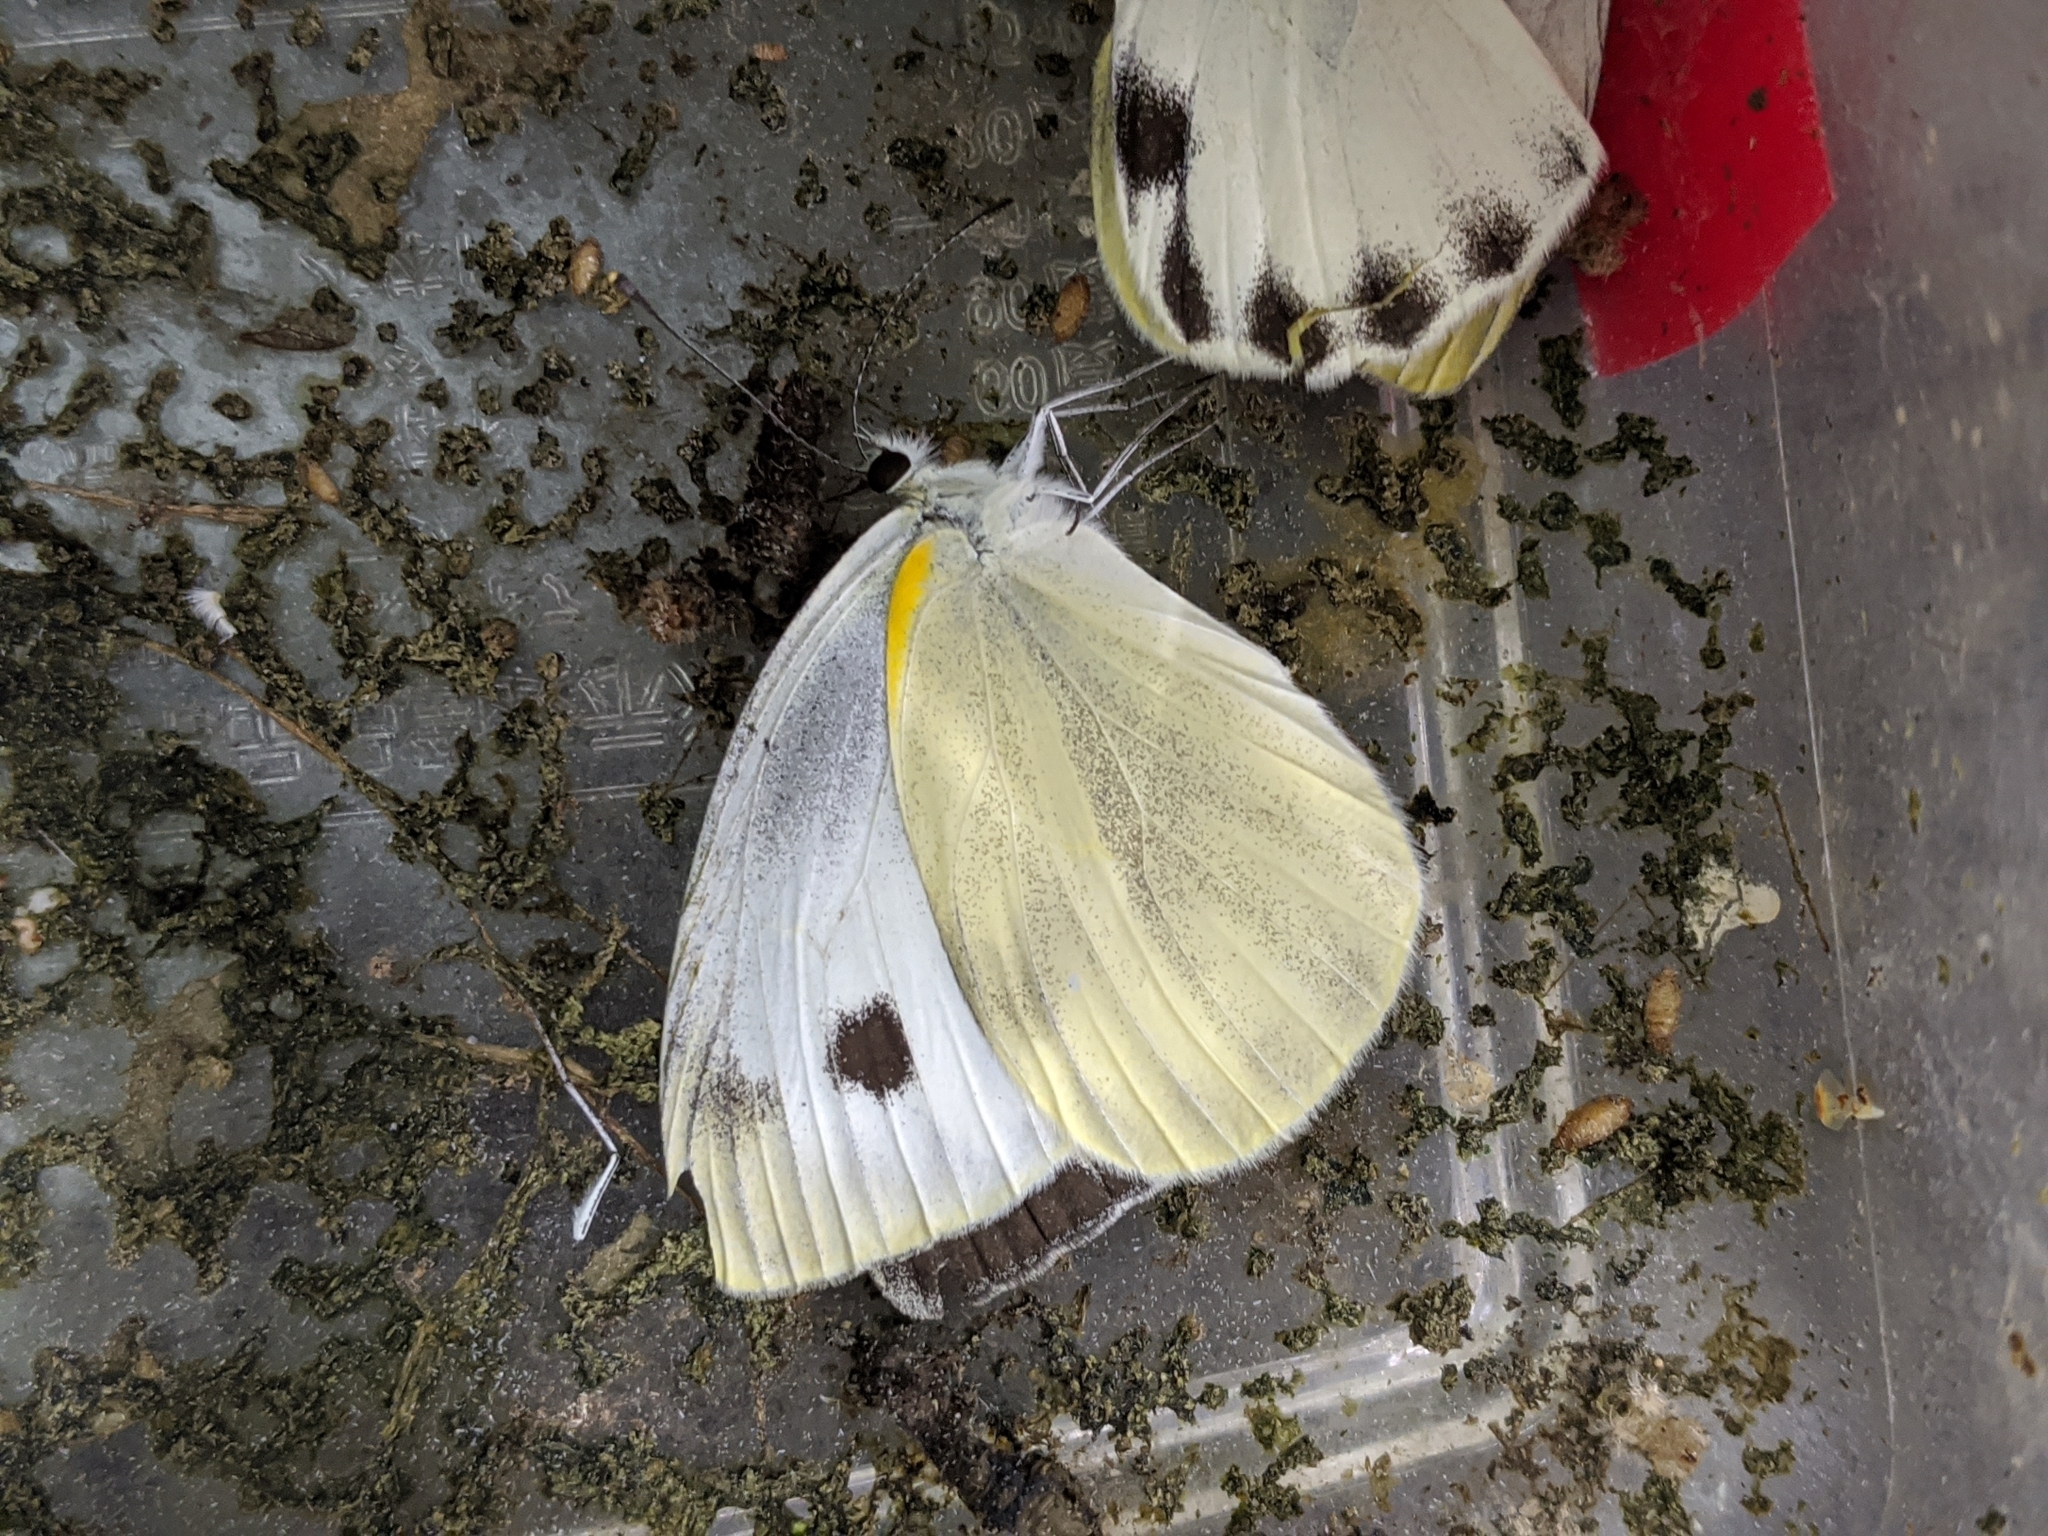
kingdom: Animalia
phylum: Arthropoda
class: Insecta
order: Lepidoptera
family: Pieridae
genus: Pieris
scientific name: Pieris canidia
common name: Indian cabbage white
